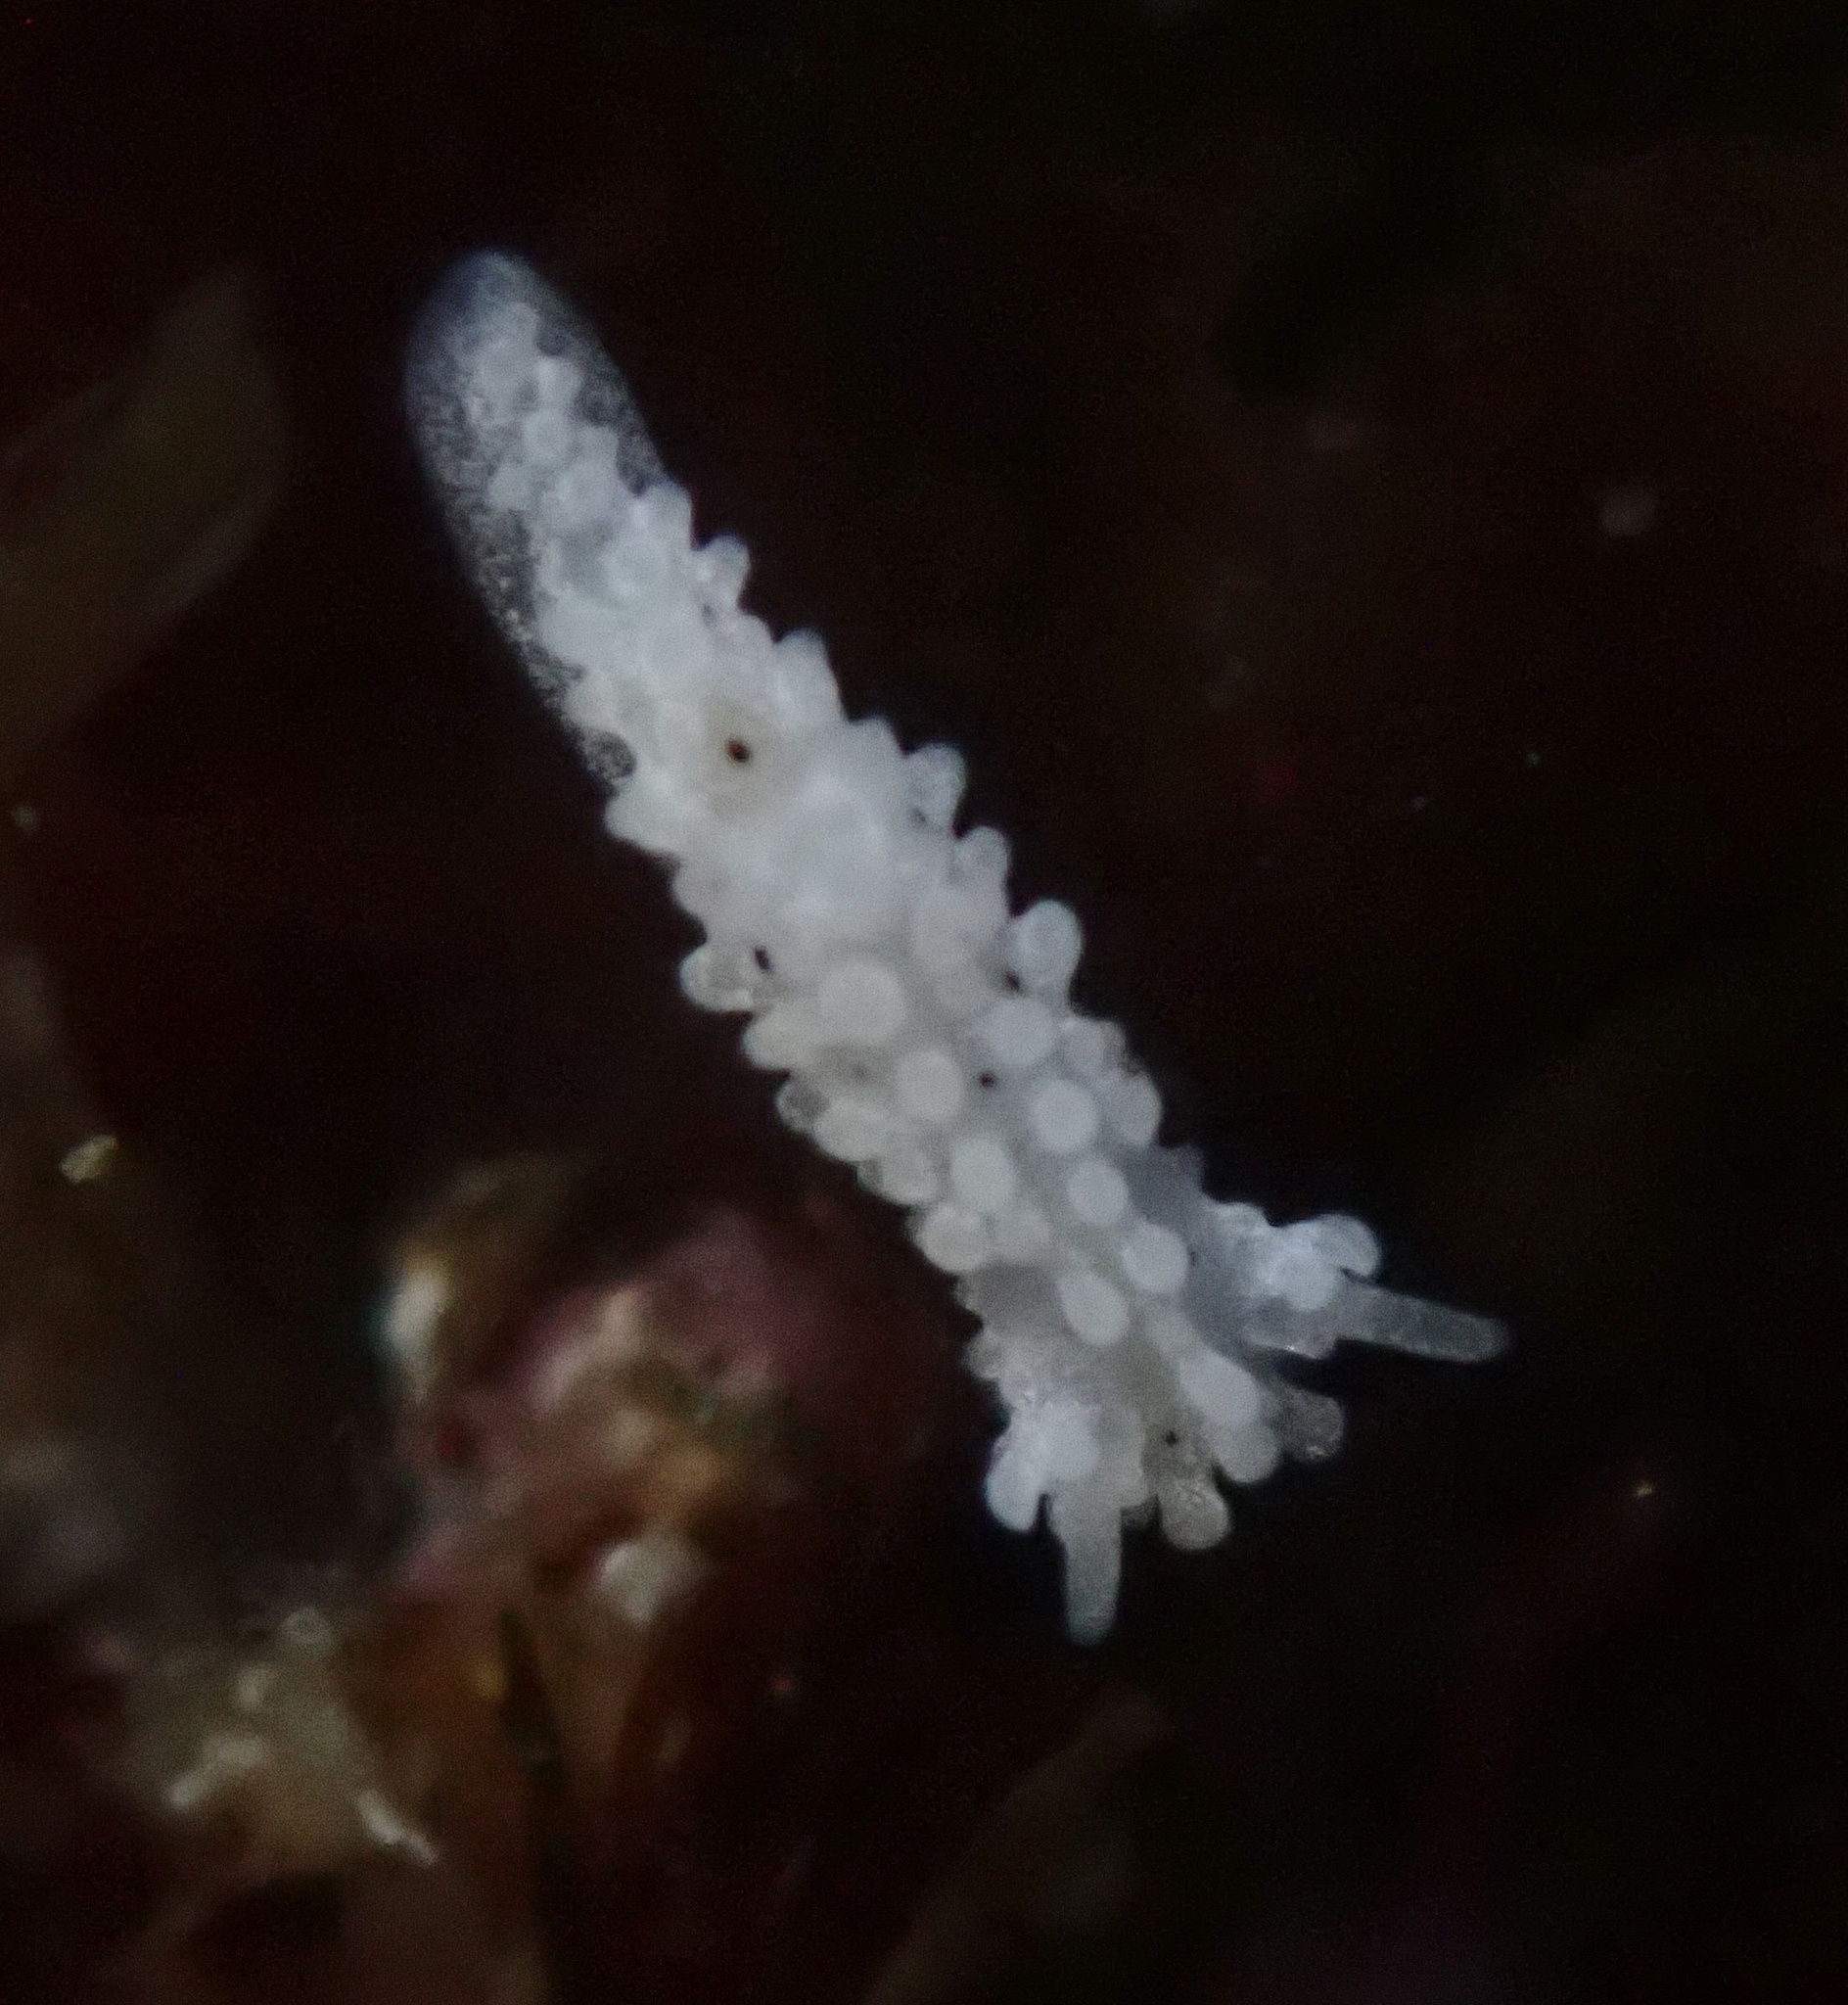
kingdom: Animalia
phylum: Mollusca
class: Gastropoda
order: Nudibranchia
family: Aegiridae
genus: Aegires
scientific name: Aegires albopunctatus
